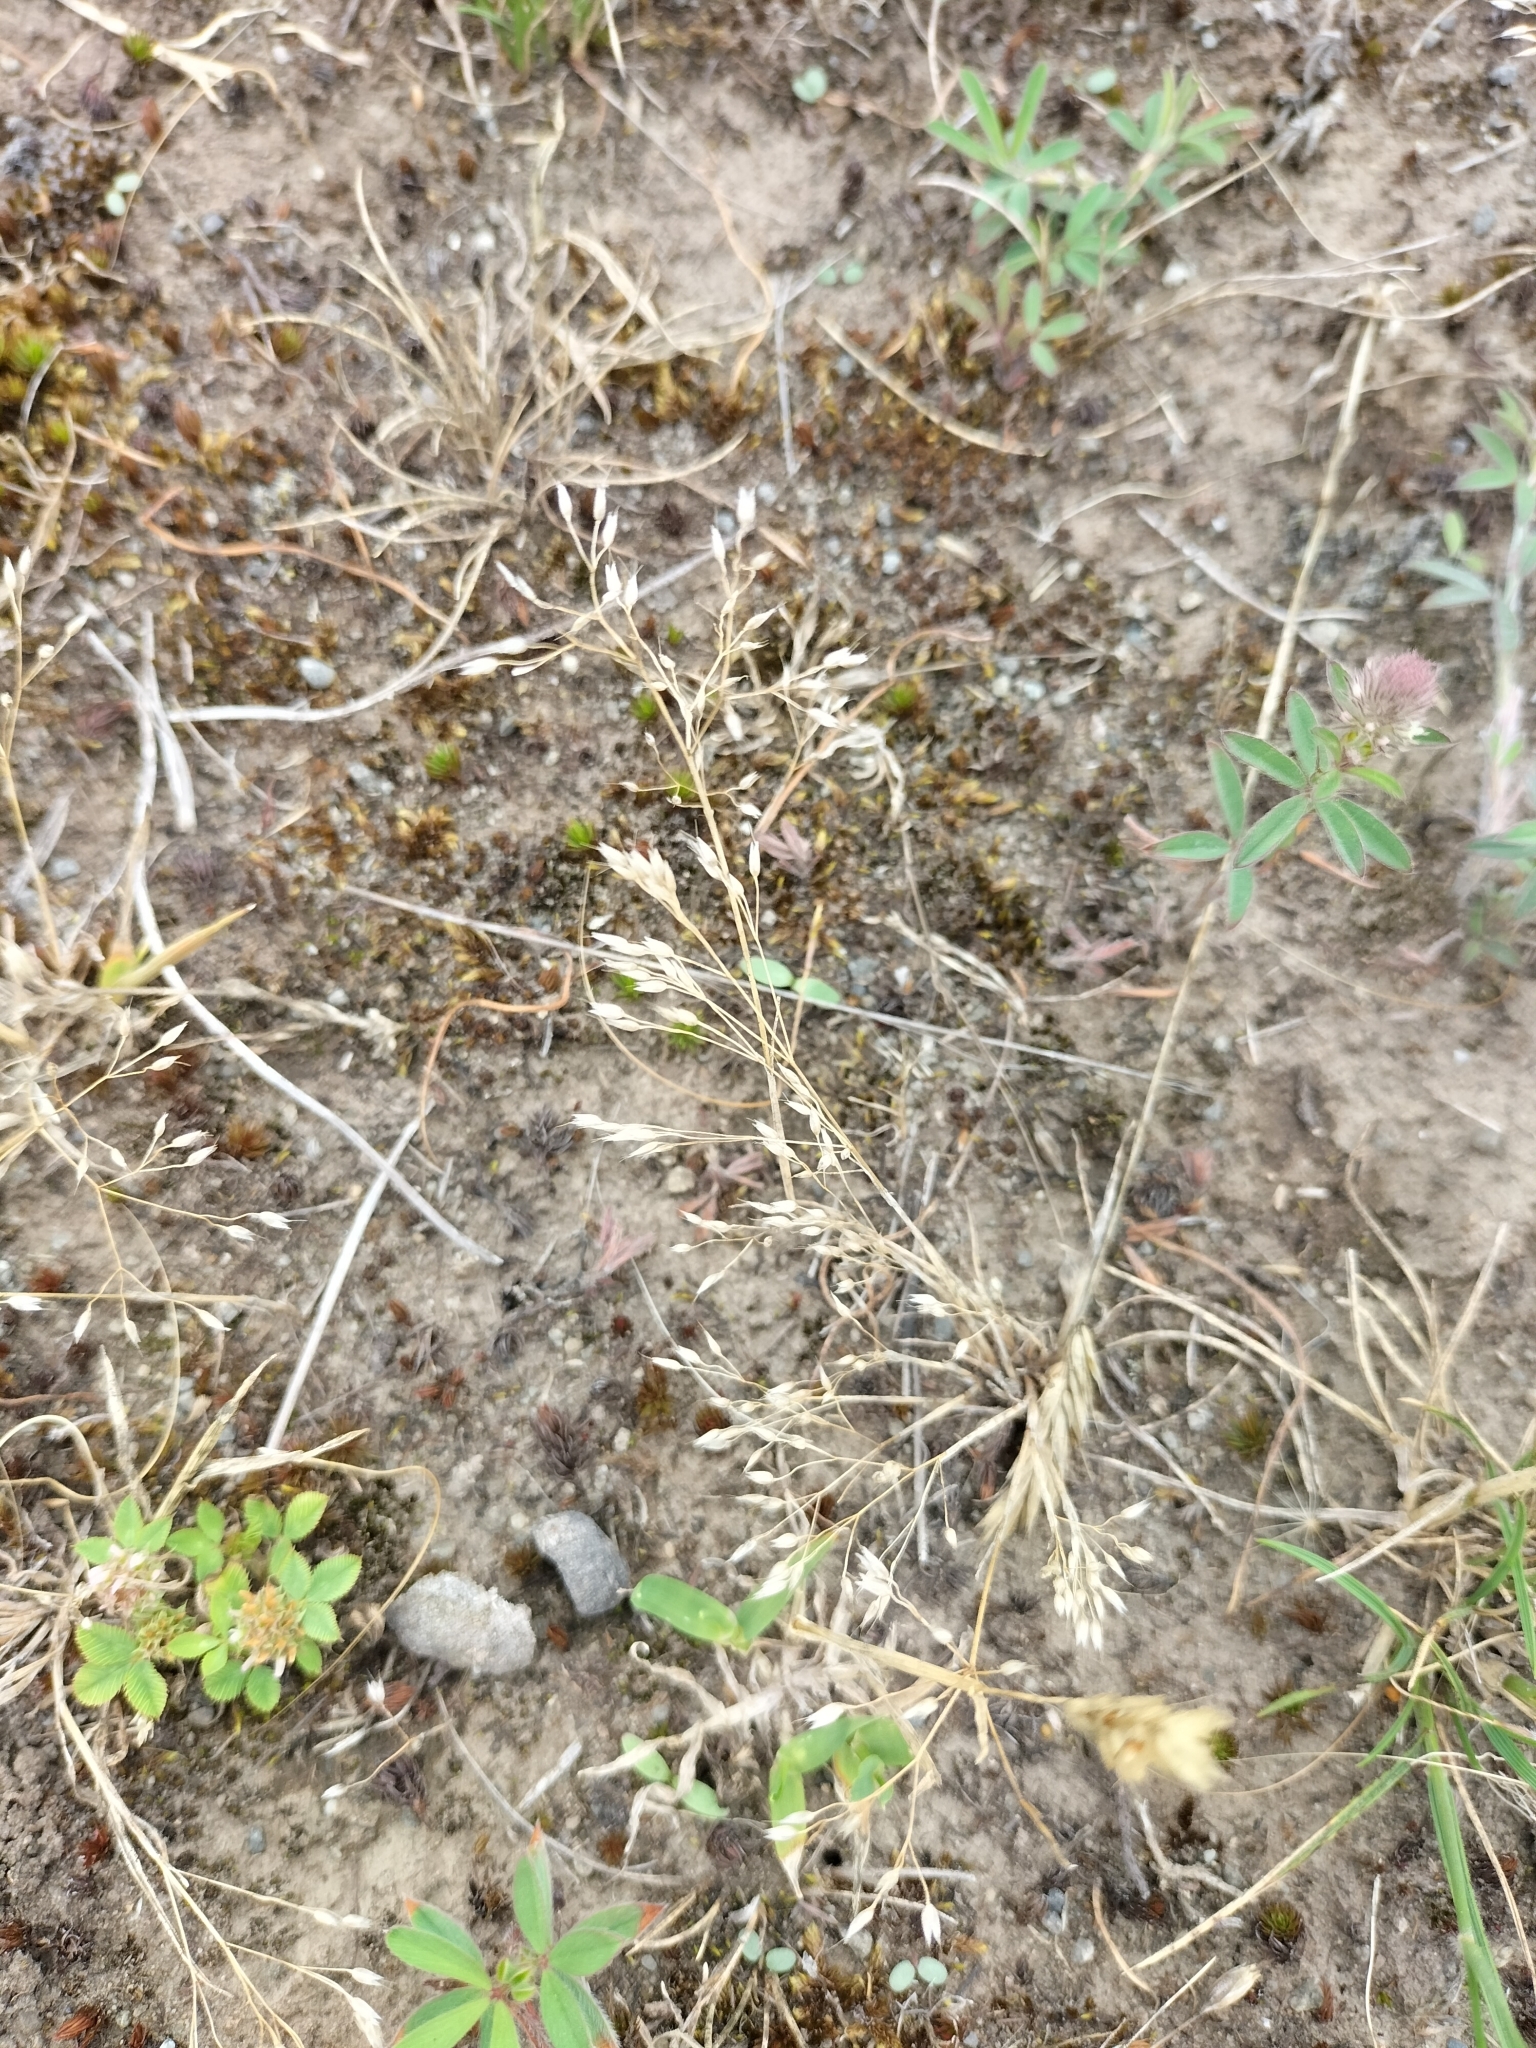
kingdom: Plantae
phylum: Tracheophyta
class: Liliopsida
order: Poales
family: Poaceae
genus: Aira
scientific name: Aira caryophyllea
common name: Silver hairgrass
